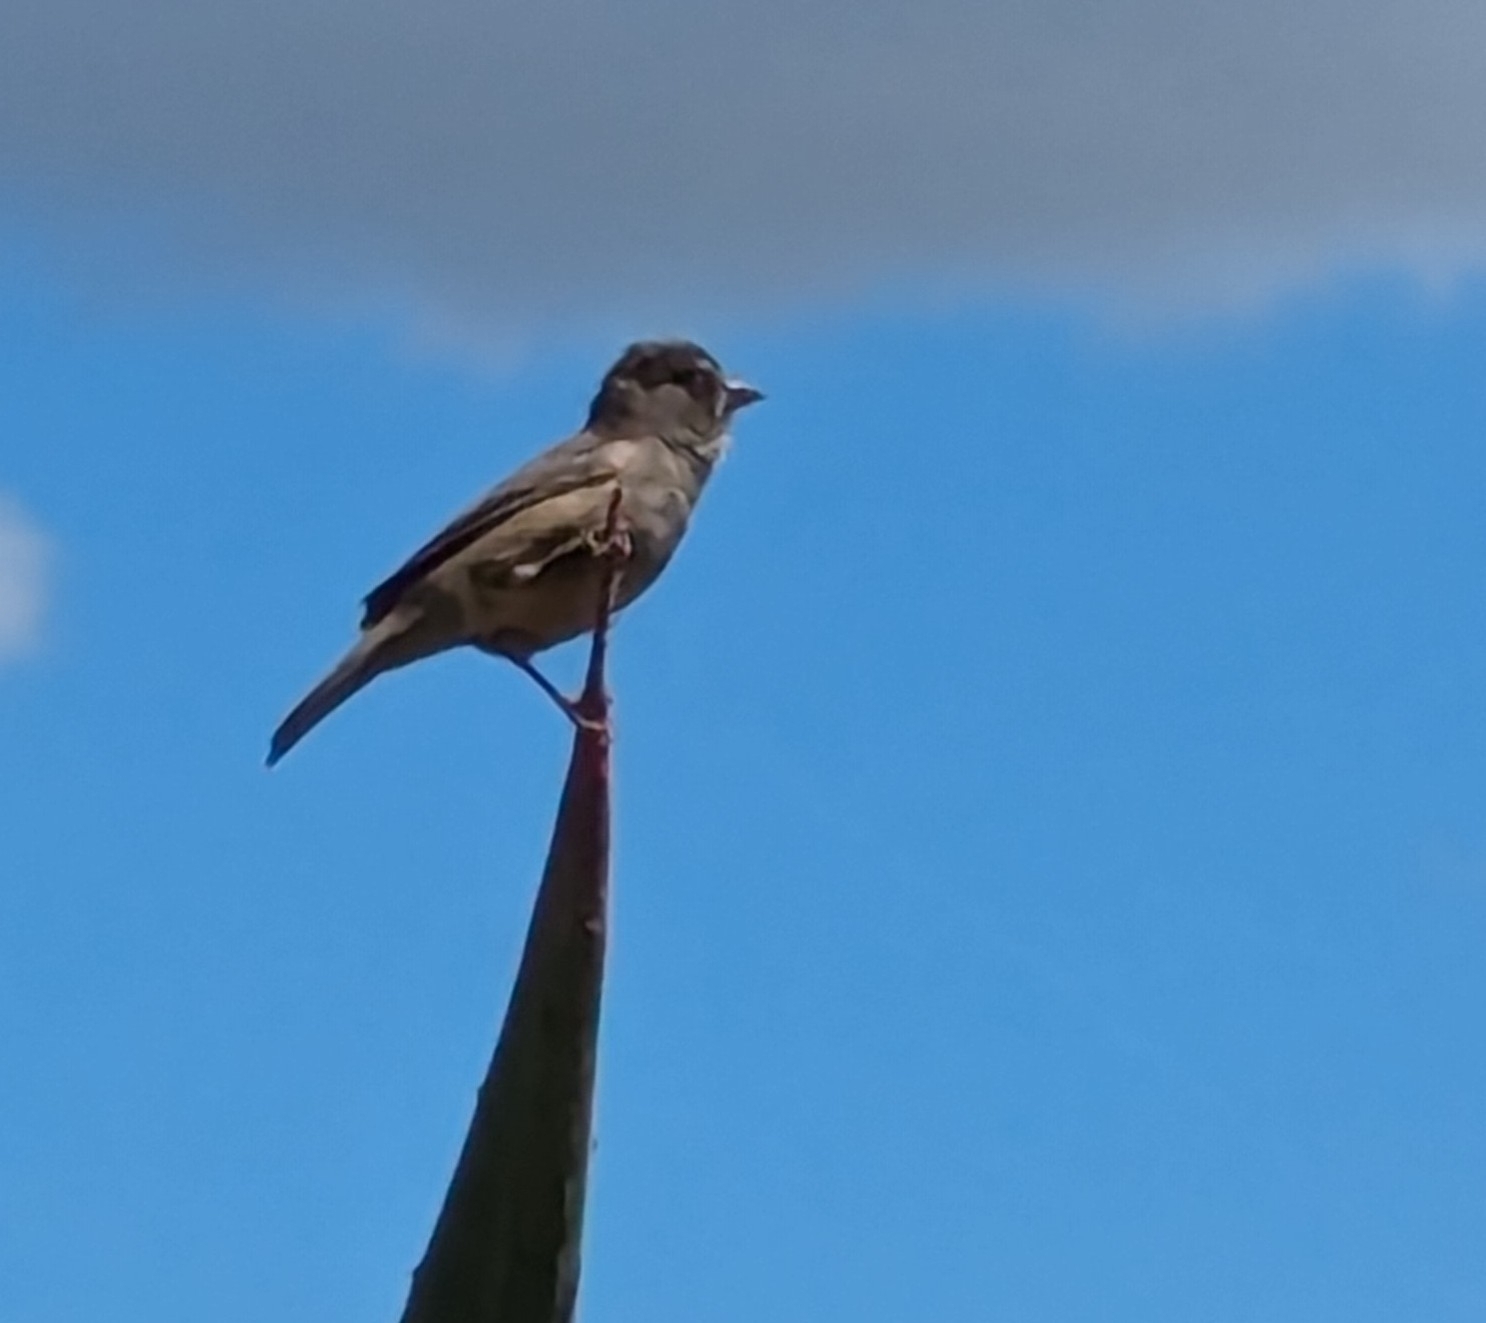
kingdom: Animalia
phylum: Chordata
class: Aves
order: Passeriformes
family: Passeridae
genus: Passer
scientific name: Passer domesticus
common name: House sparrow
